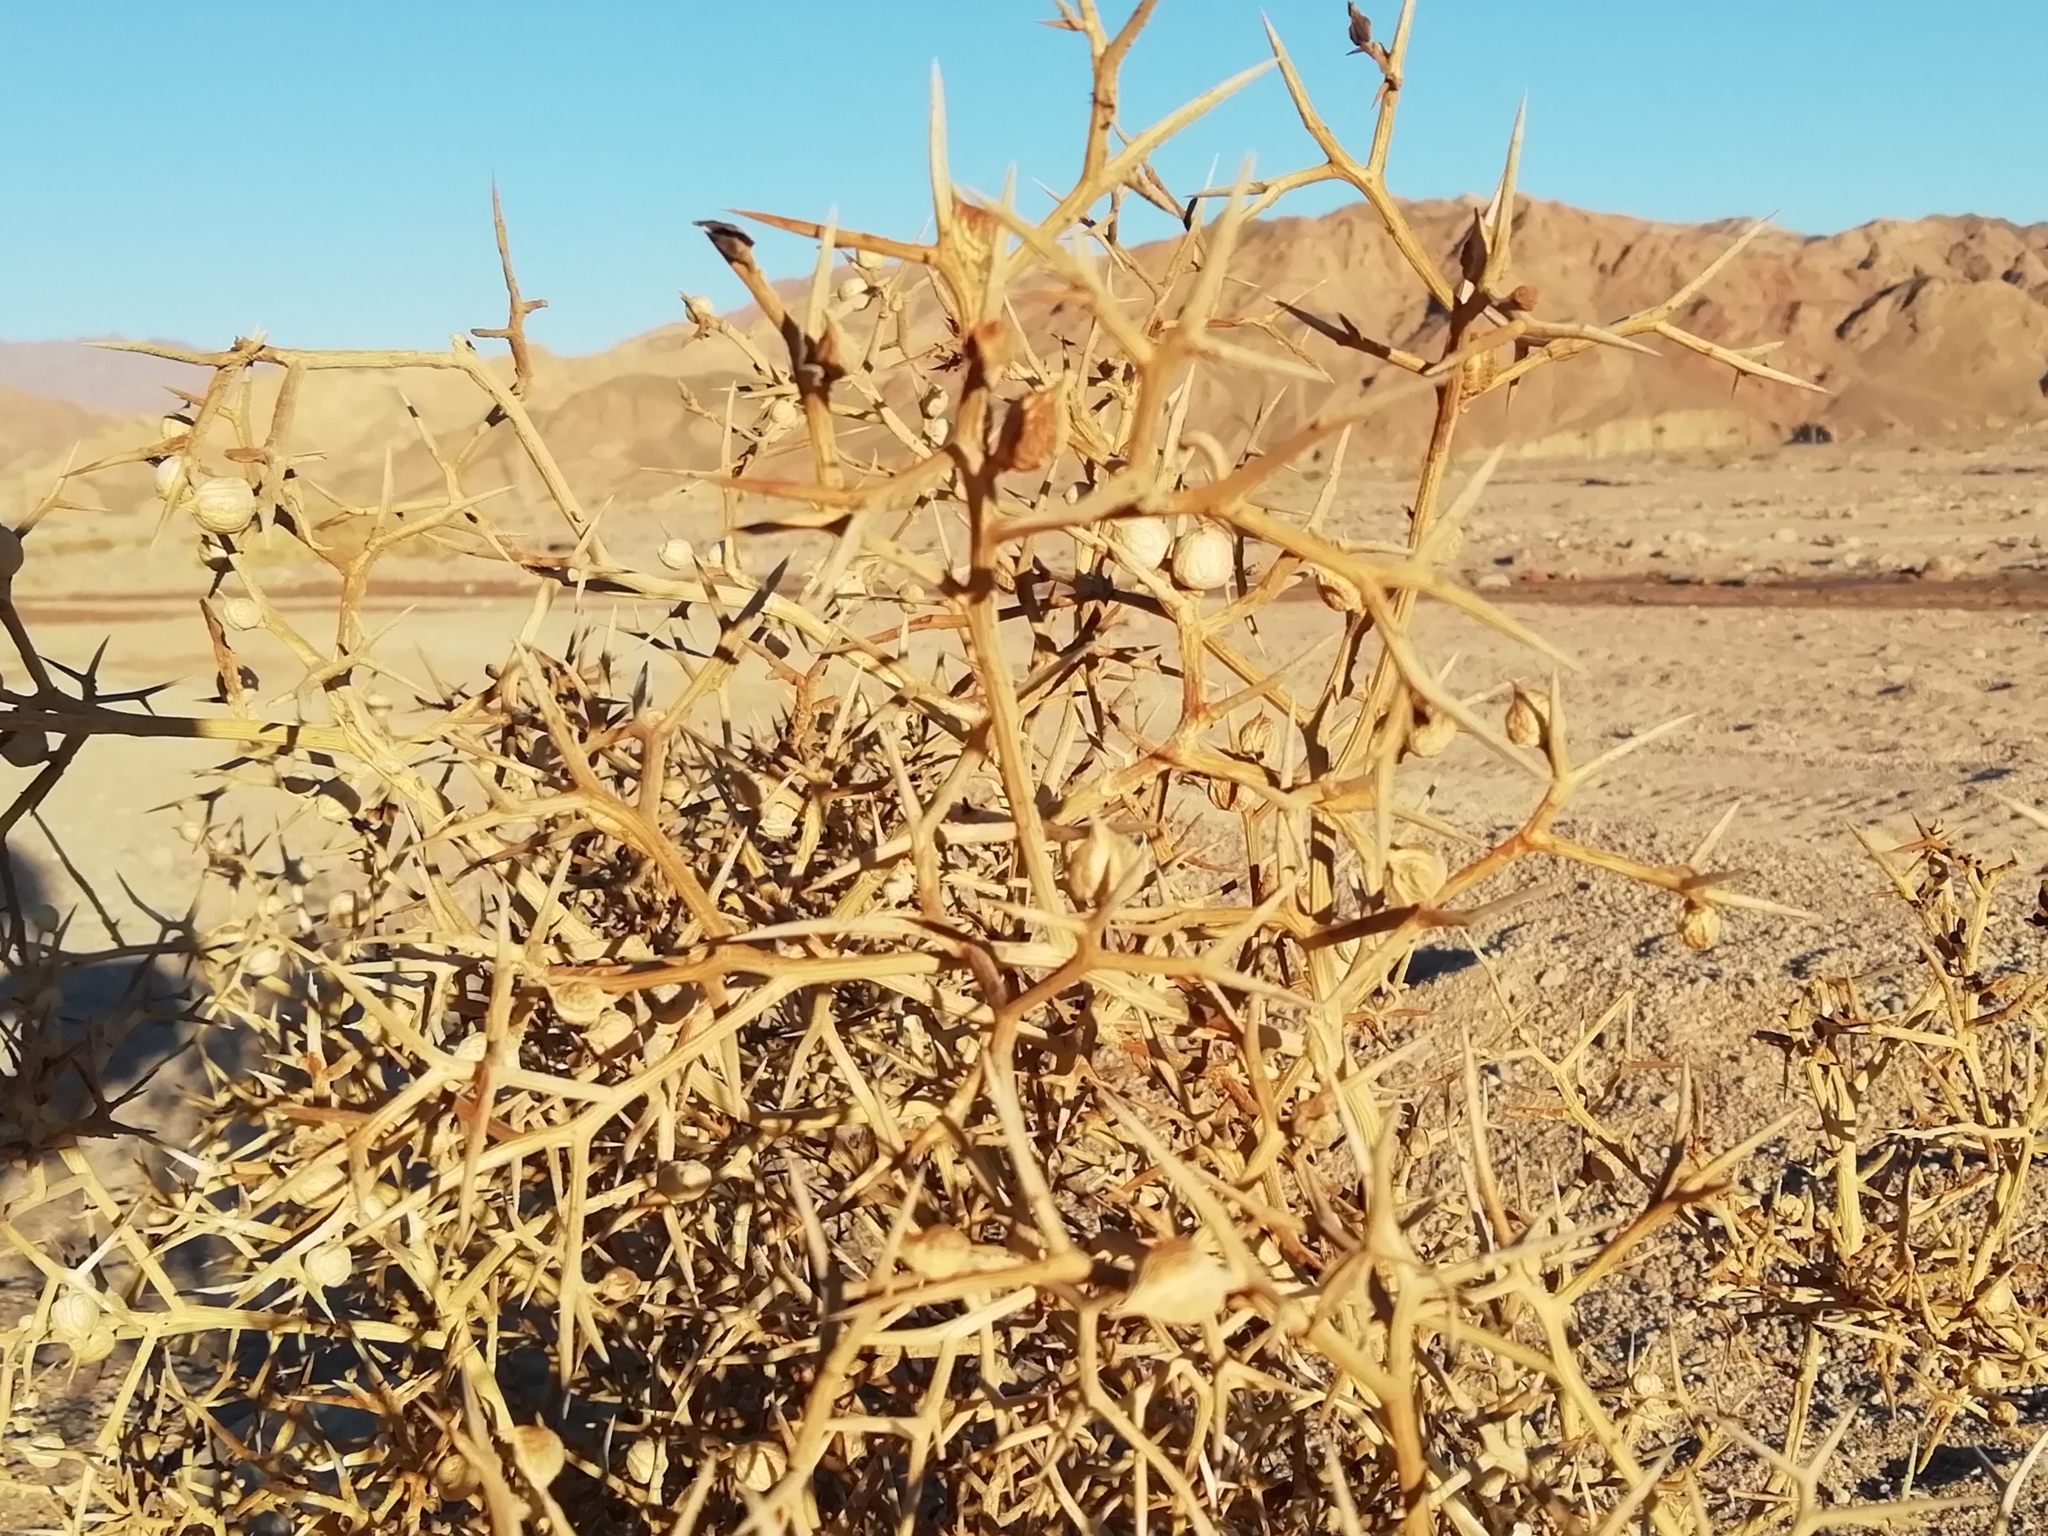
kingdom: Plantae
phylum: Tracheophyta
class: Magnoliopsida
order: Brassicales
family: Brassicaceae
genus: Zilla
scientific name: Zilla spinosa
